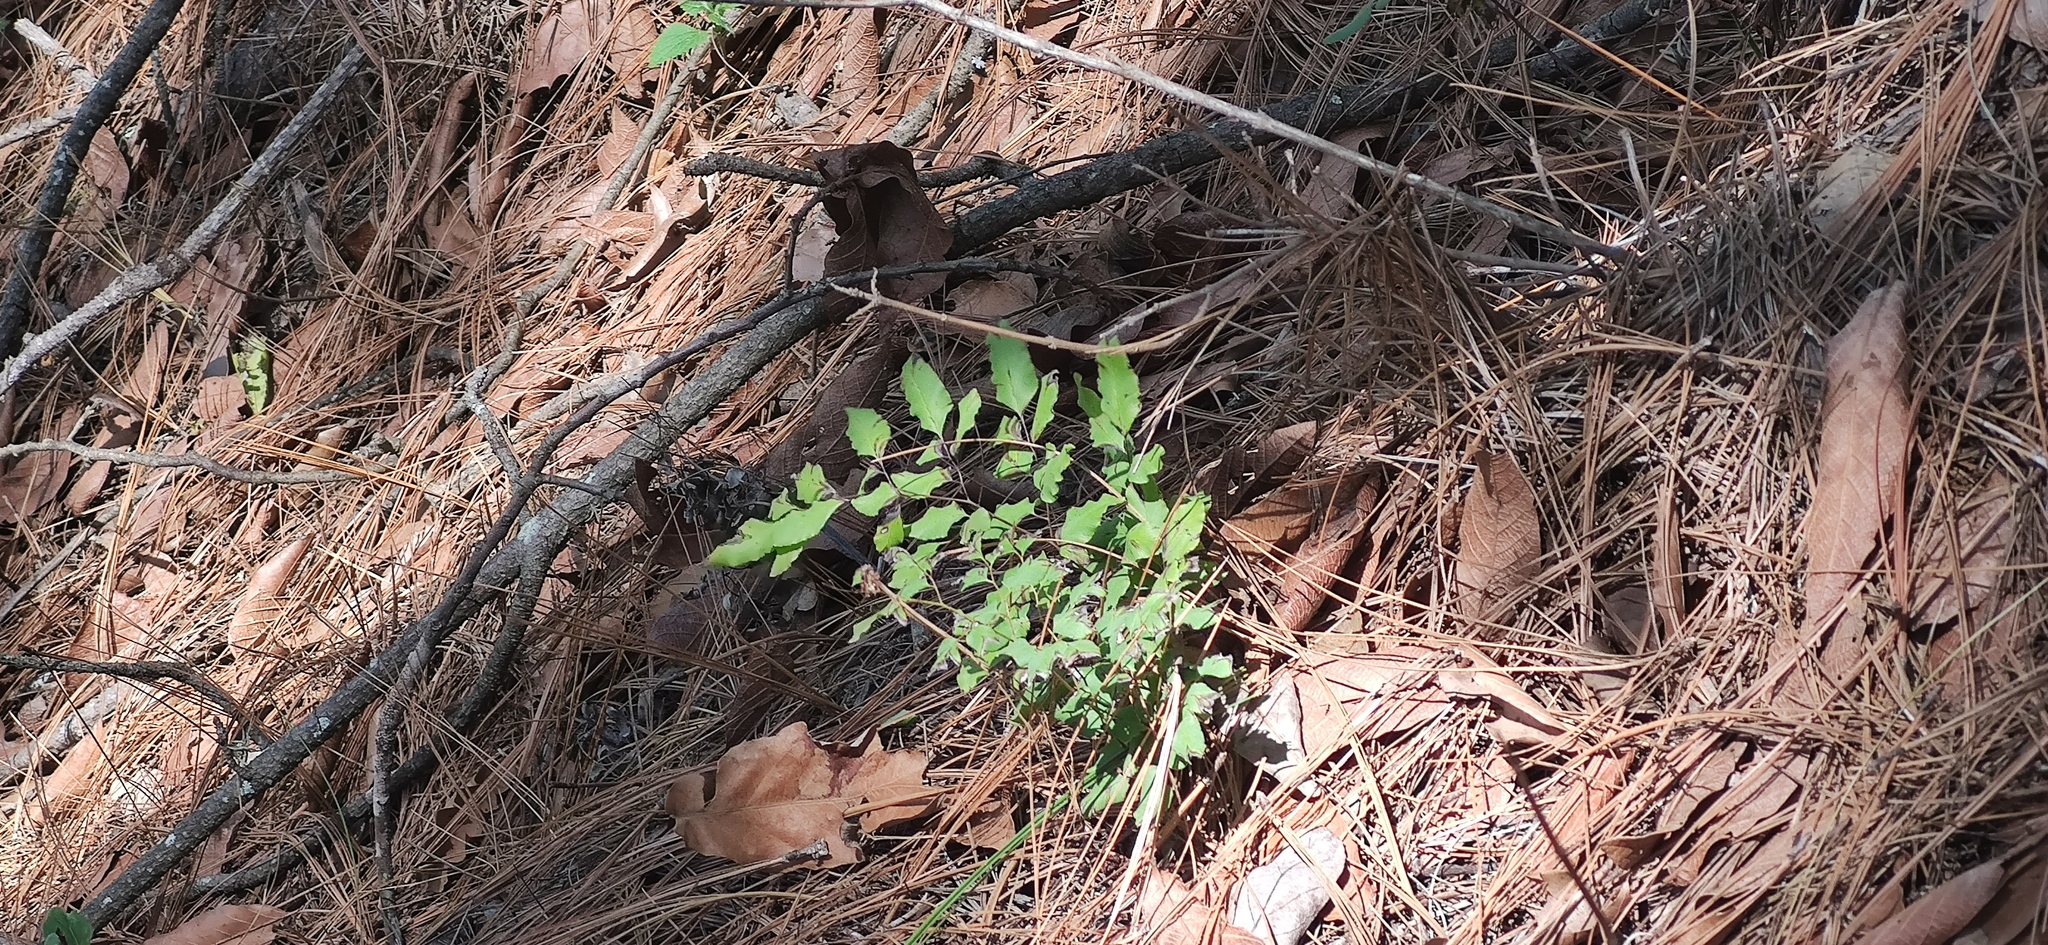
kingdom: Plantae
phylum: Tracheophyta
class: Polypodiopsida
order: Polypodiales
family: Dryopteridaceae
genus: Phanerophlebia
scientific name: Phanerophlebia umbonata
